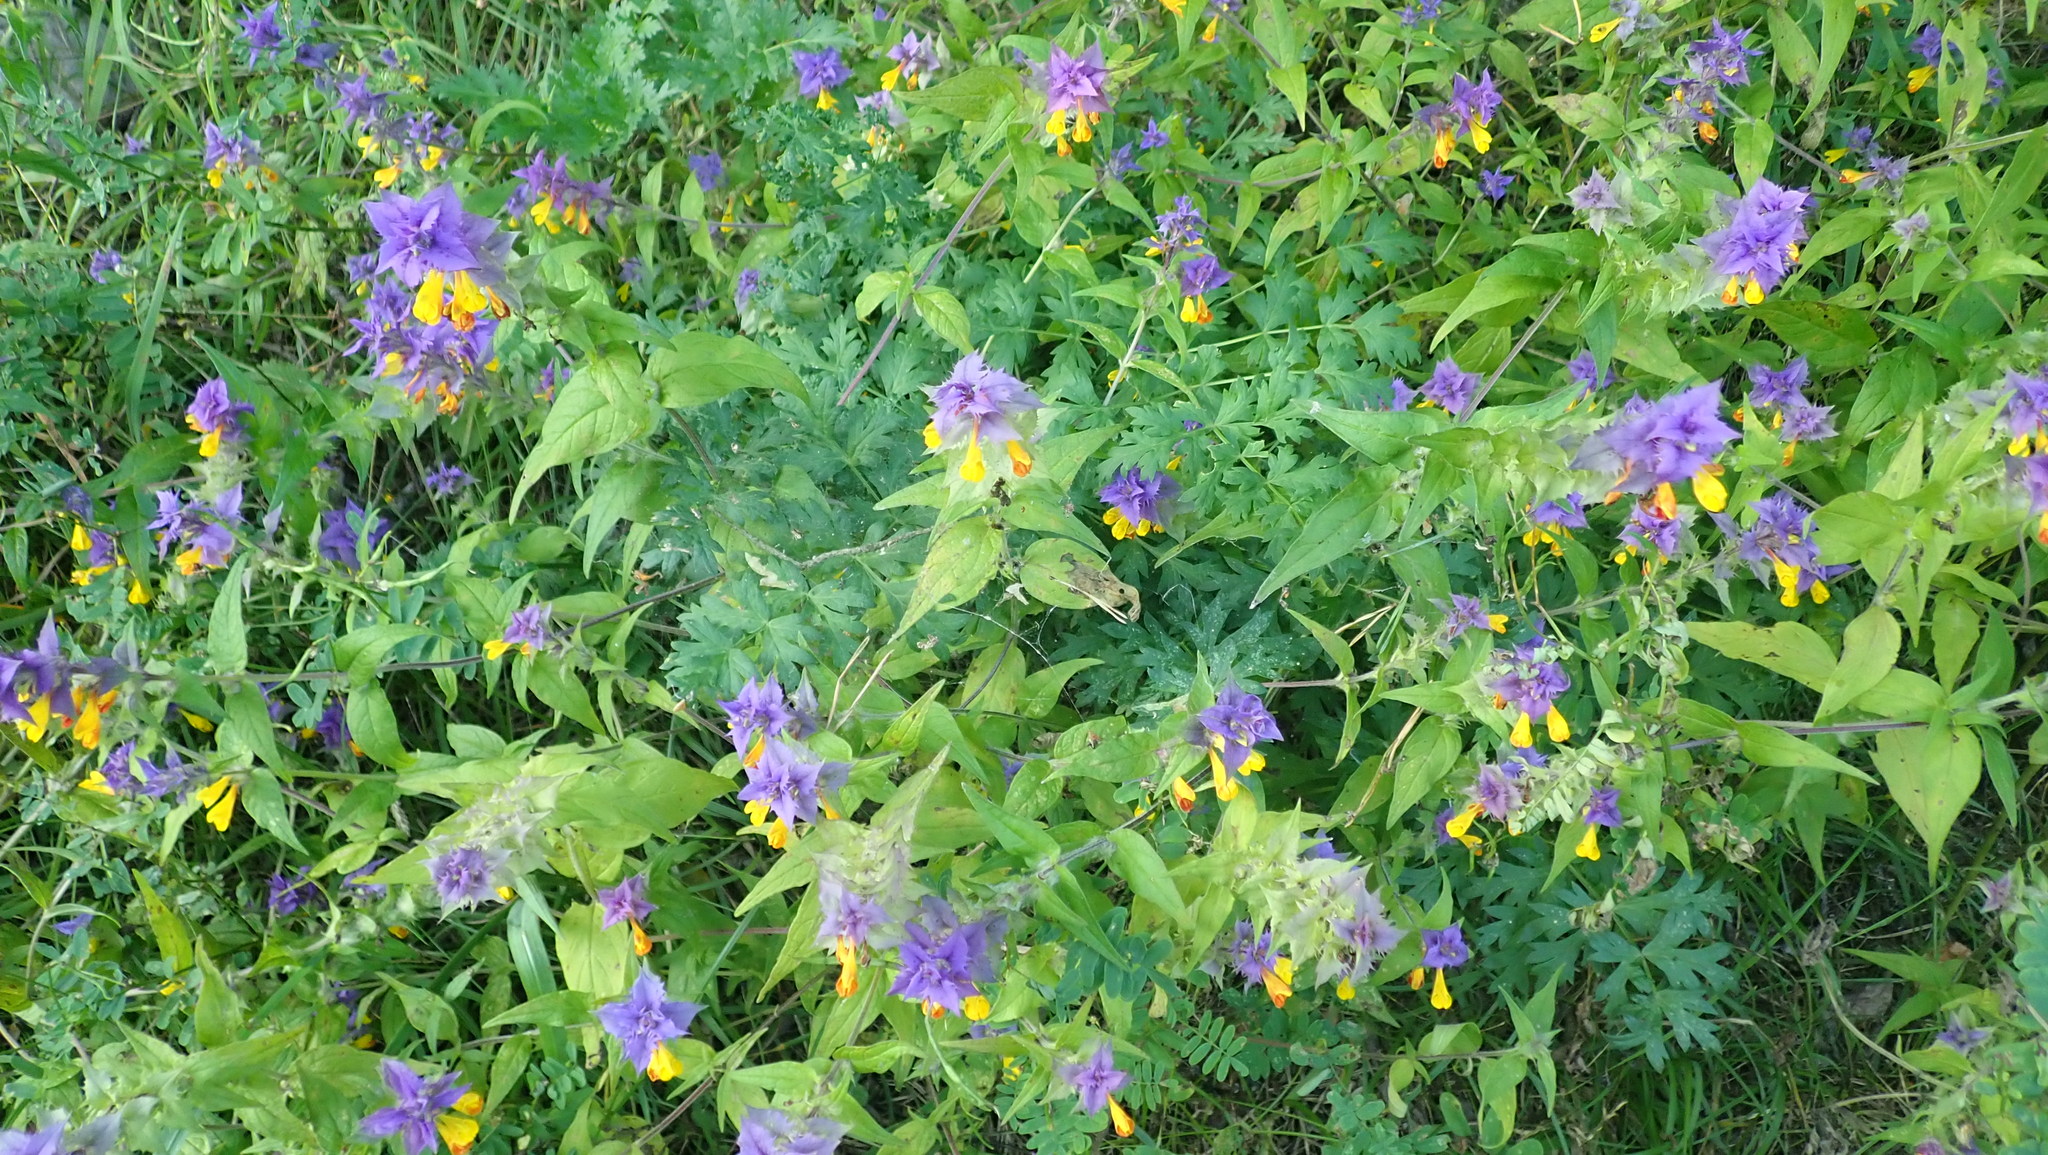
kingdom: Plantae
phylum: Tracheophyta
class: Magnoliopsida
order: Lamiales
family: Orobanchaceae
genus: Melampyrum
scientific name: Melampyrum nemorosum
